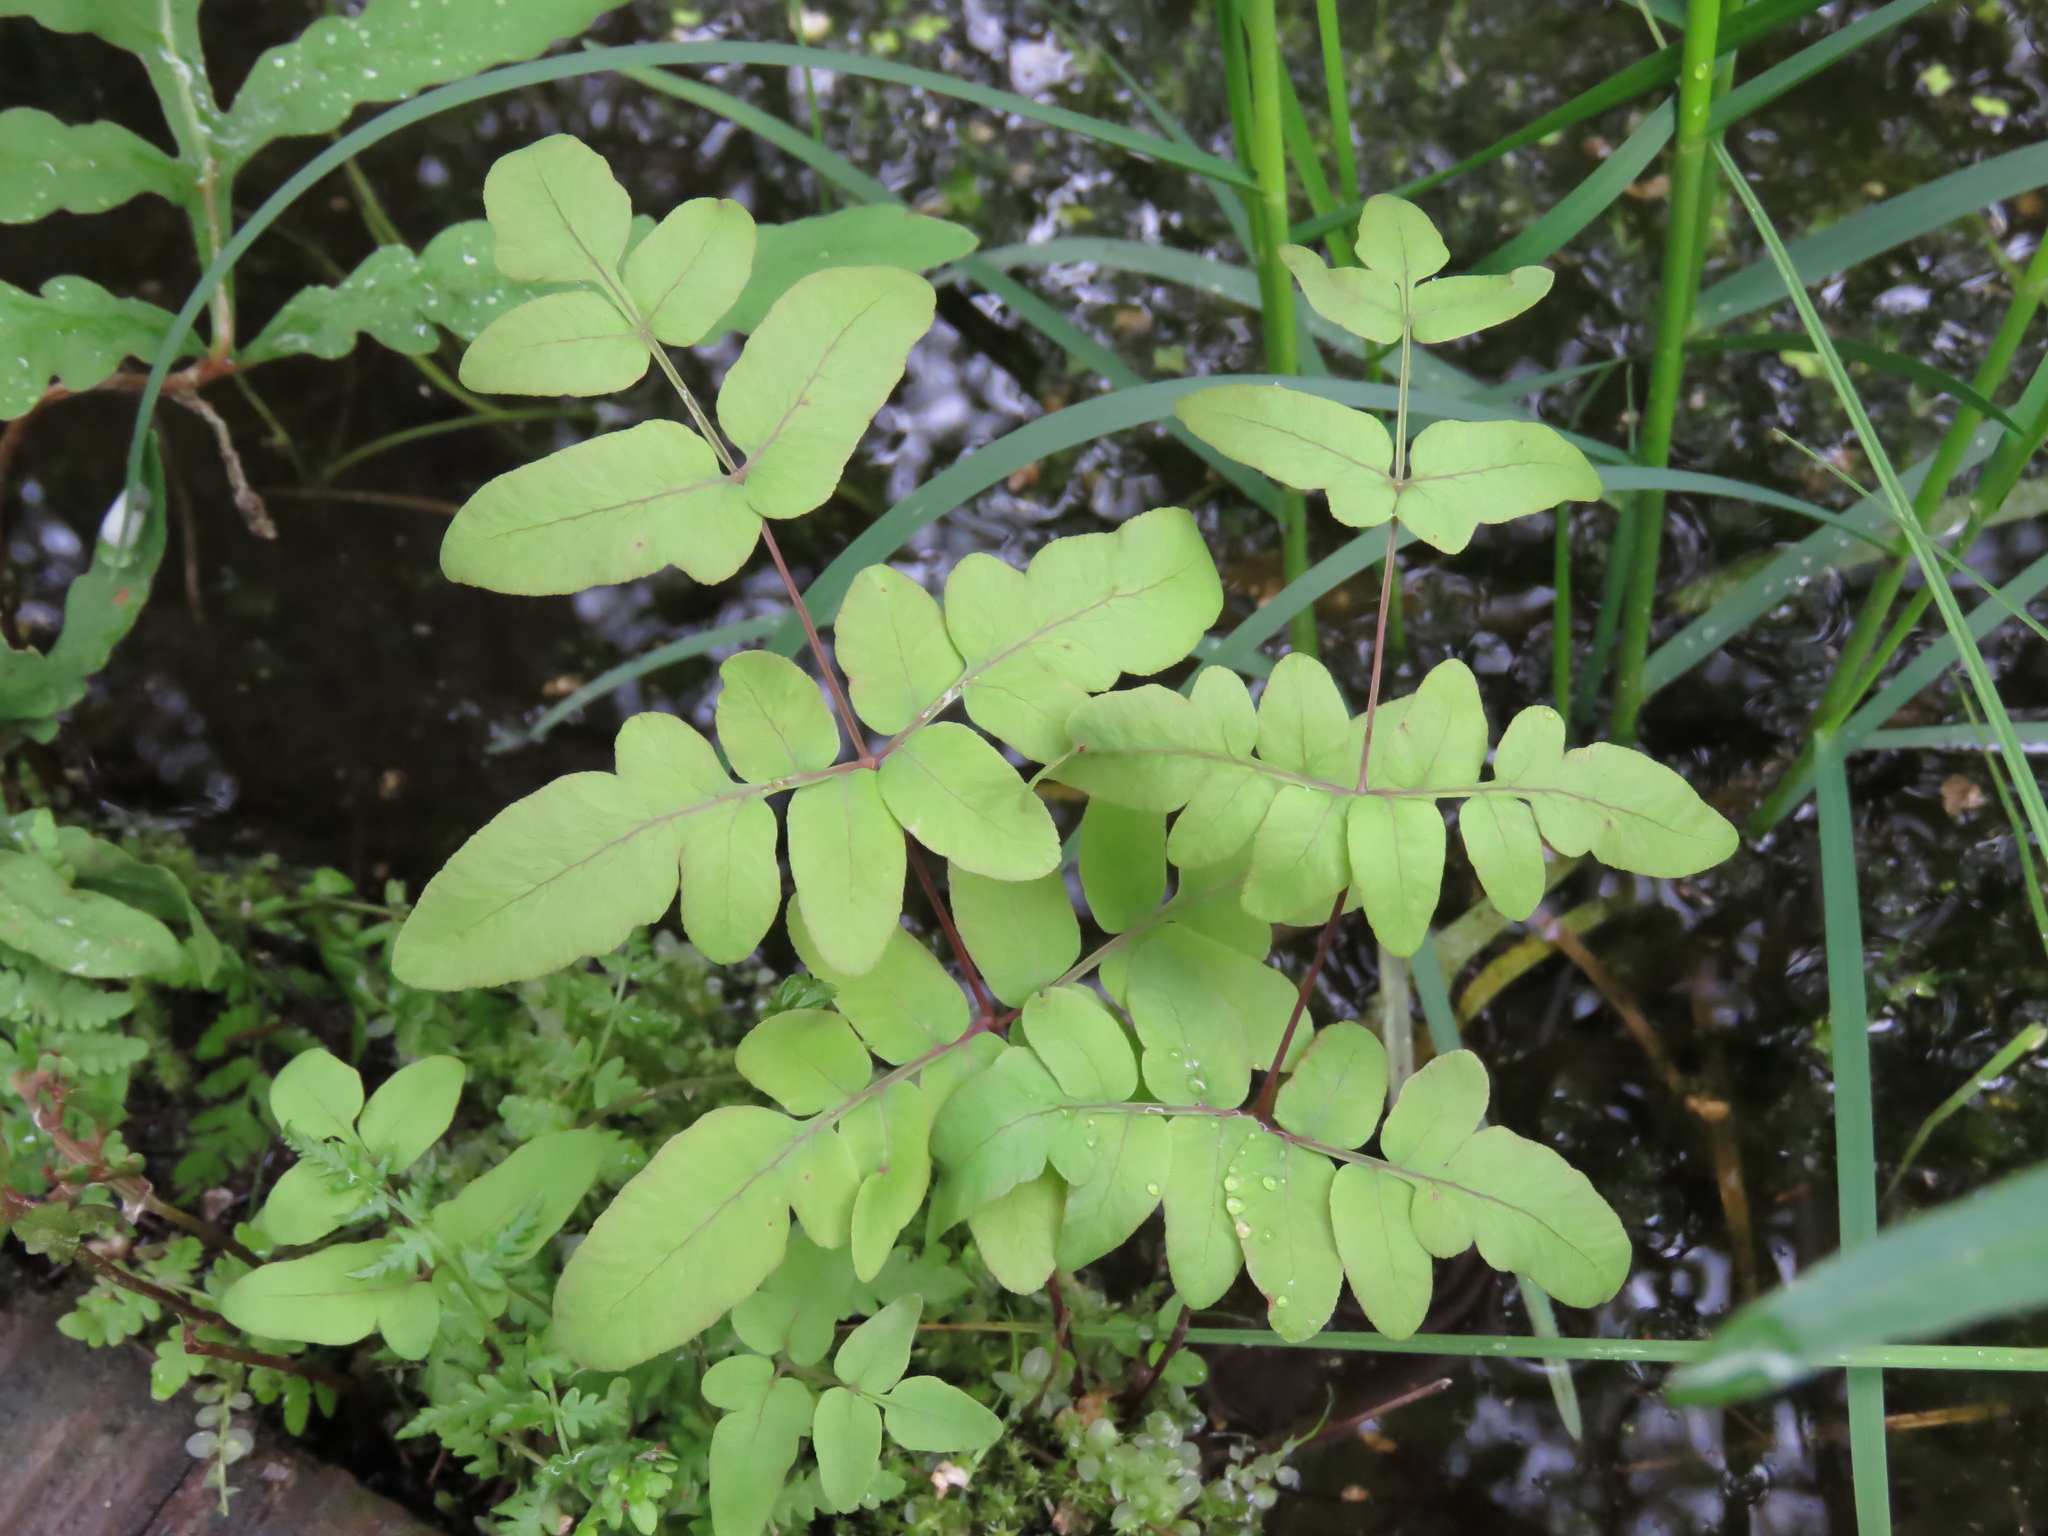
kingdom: Plantae
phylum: Tracheophyta
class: Polypodiopsida
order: Osmundales
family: Osmundaceae
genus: Osmunda
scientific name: Osmunda spectabilis
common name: American royal fern
